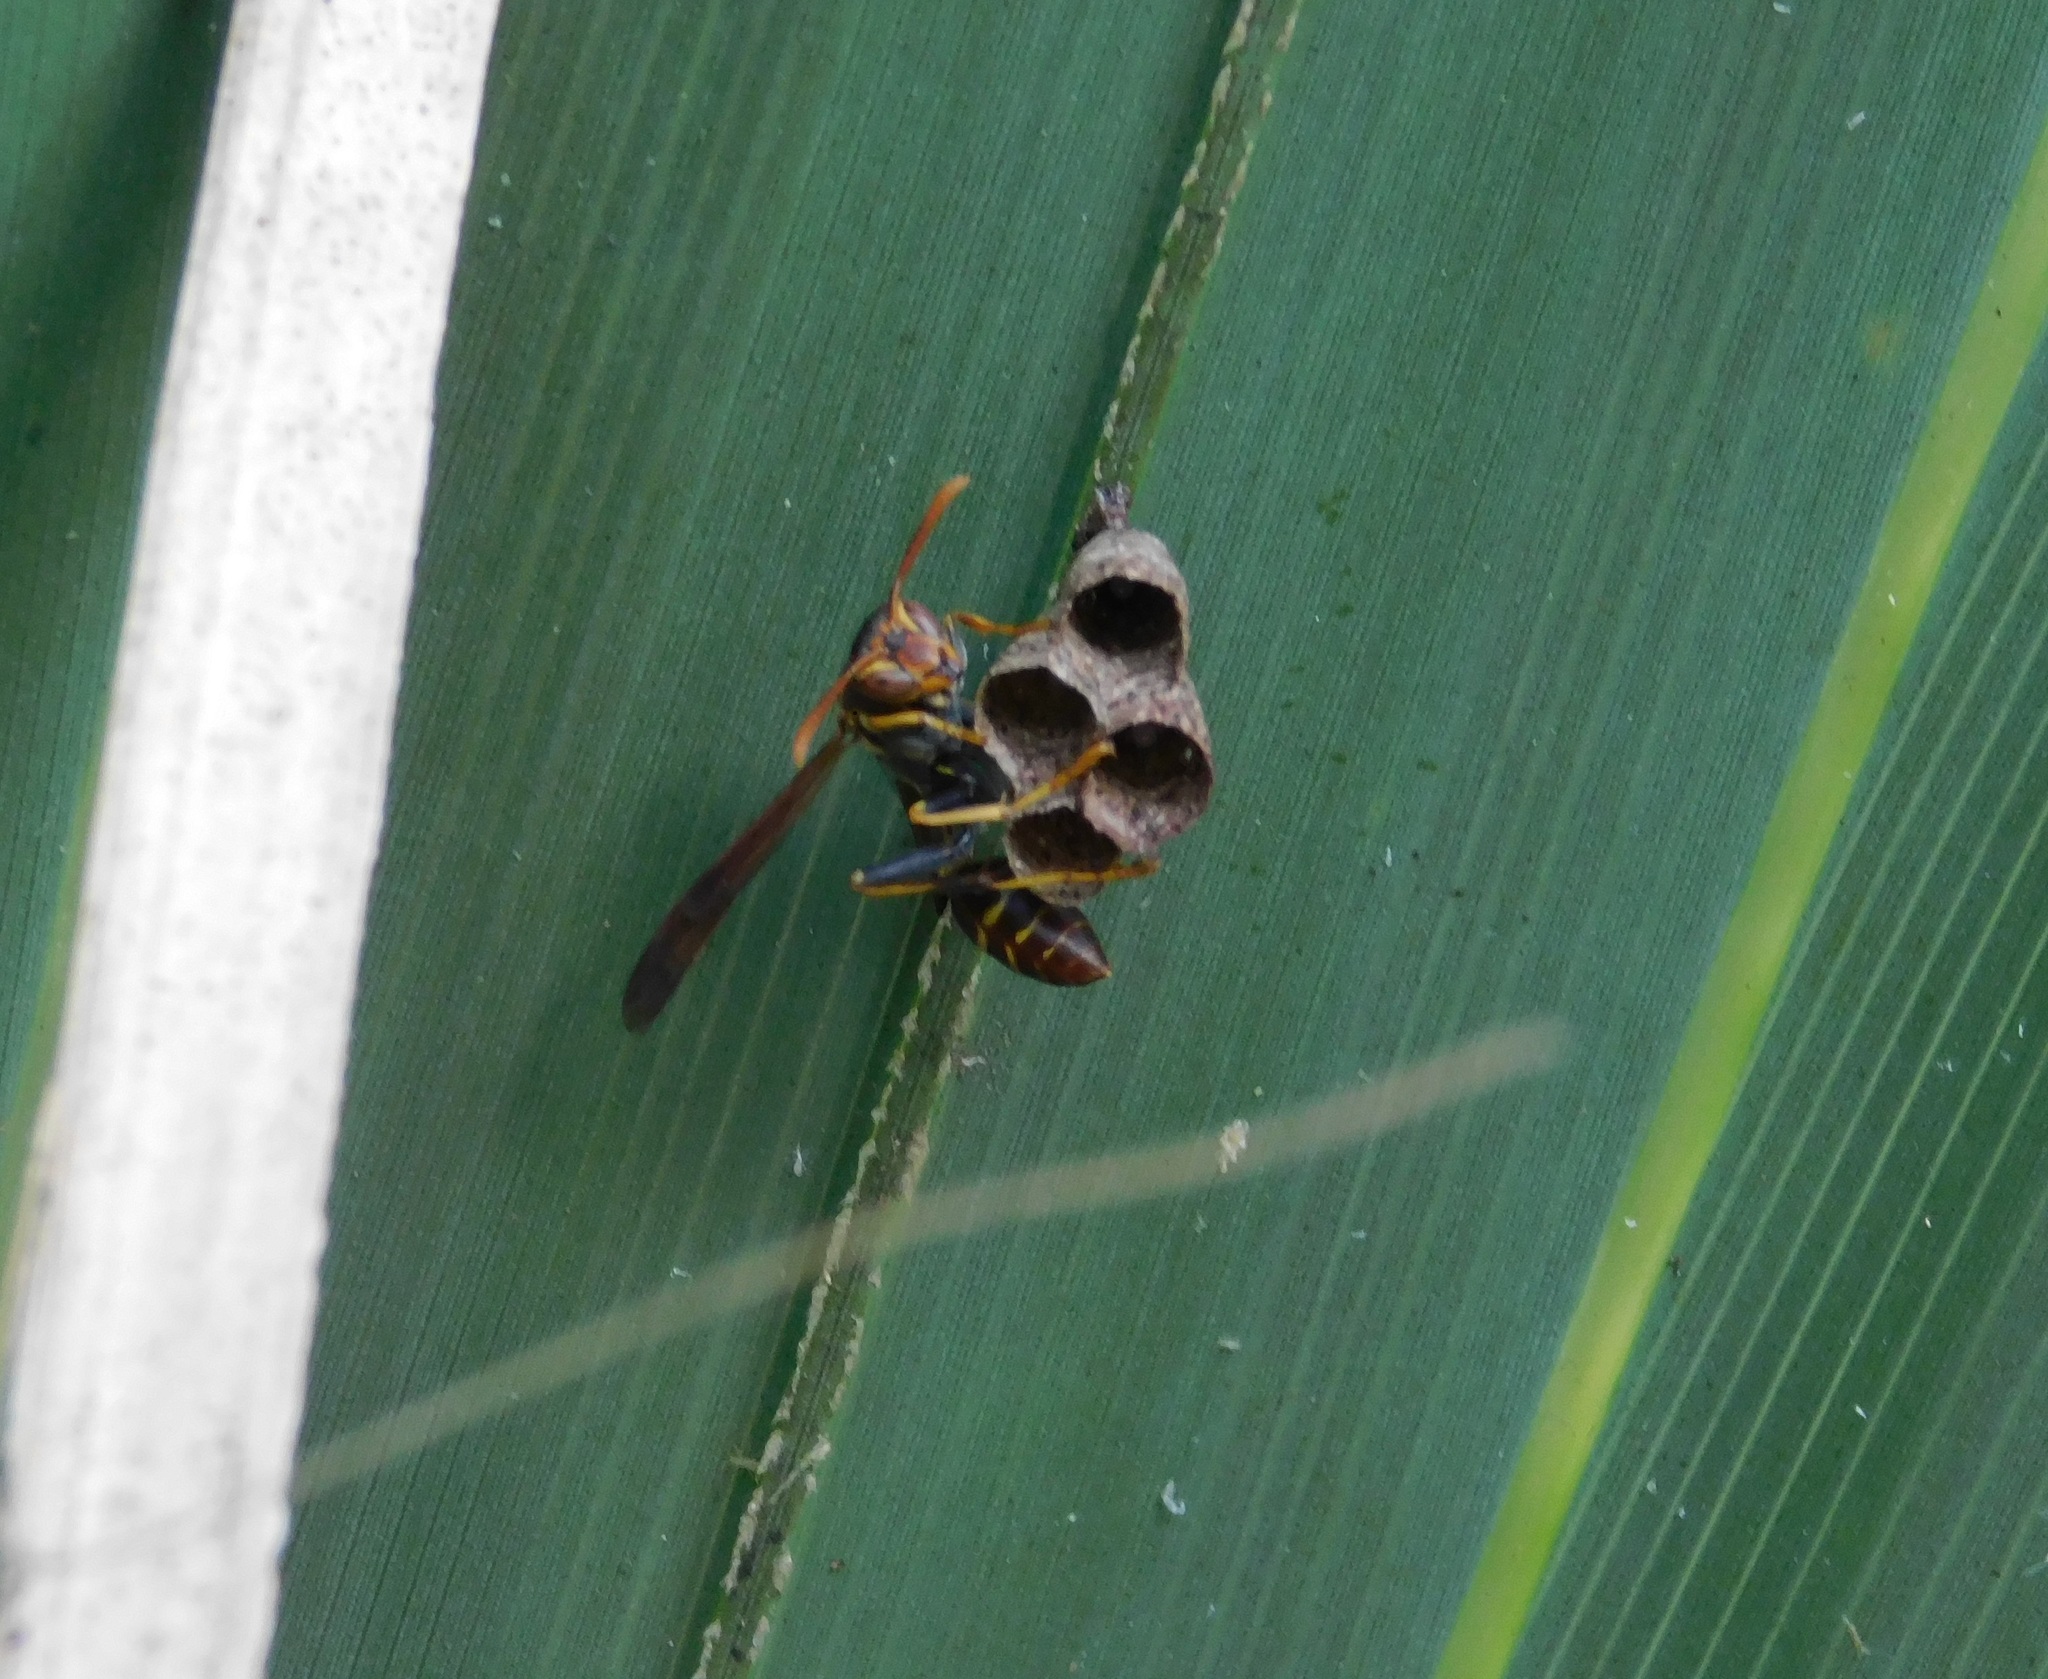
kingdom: Animalia
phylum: Arthropoda
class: Insecta
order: Hymenoptera
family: Vespidae
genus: Mischocyttarus
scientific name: Mischocyttarus mexicanus
